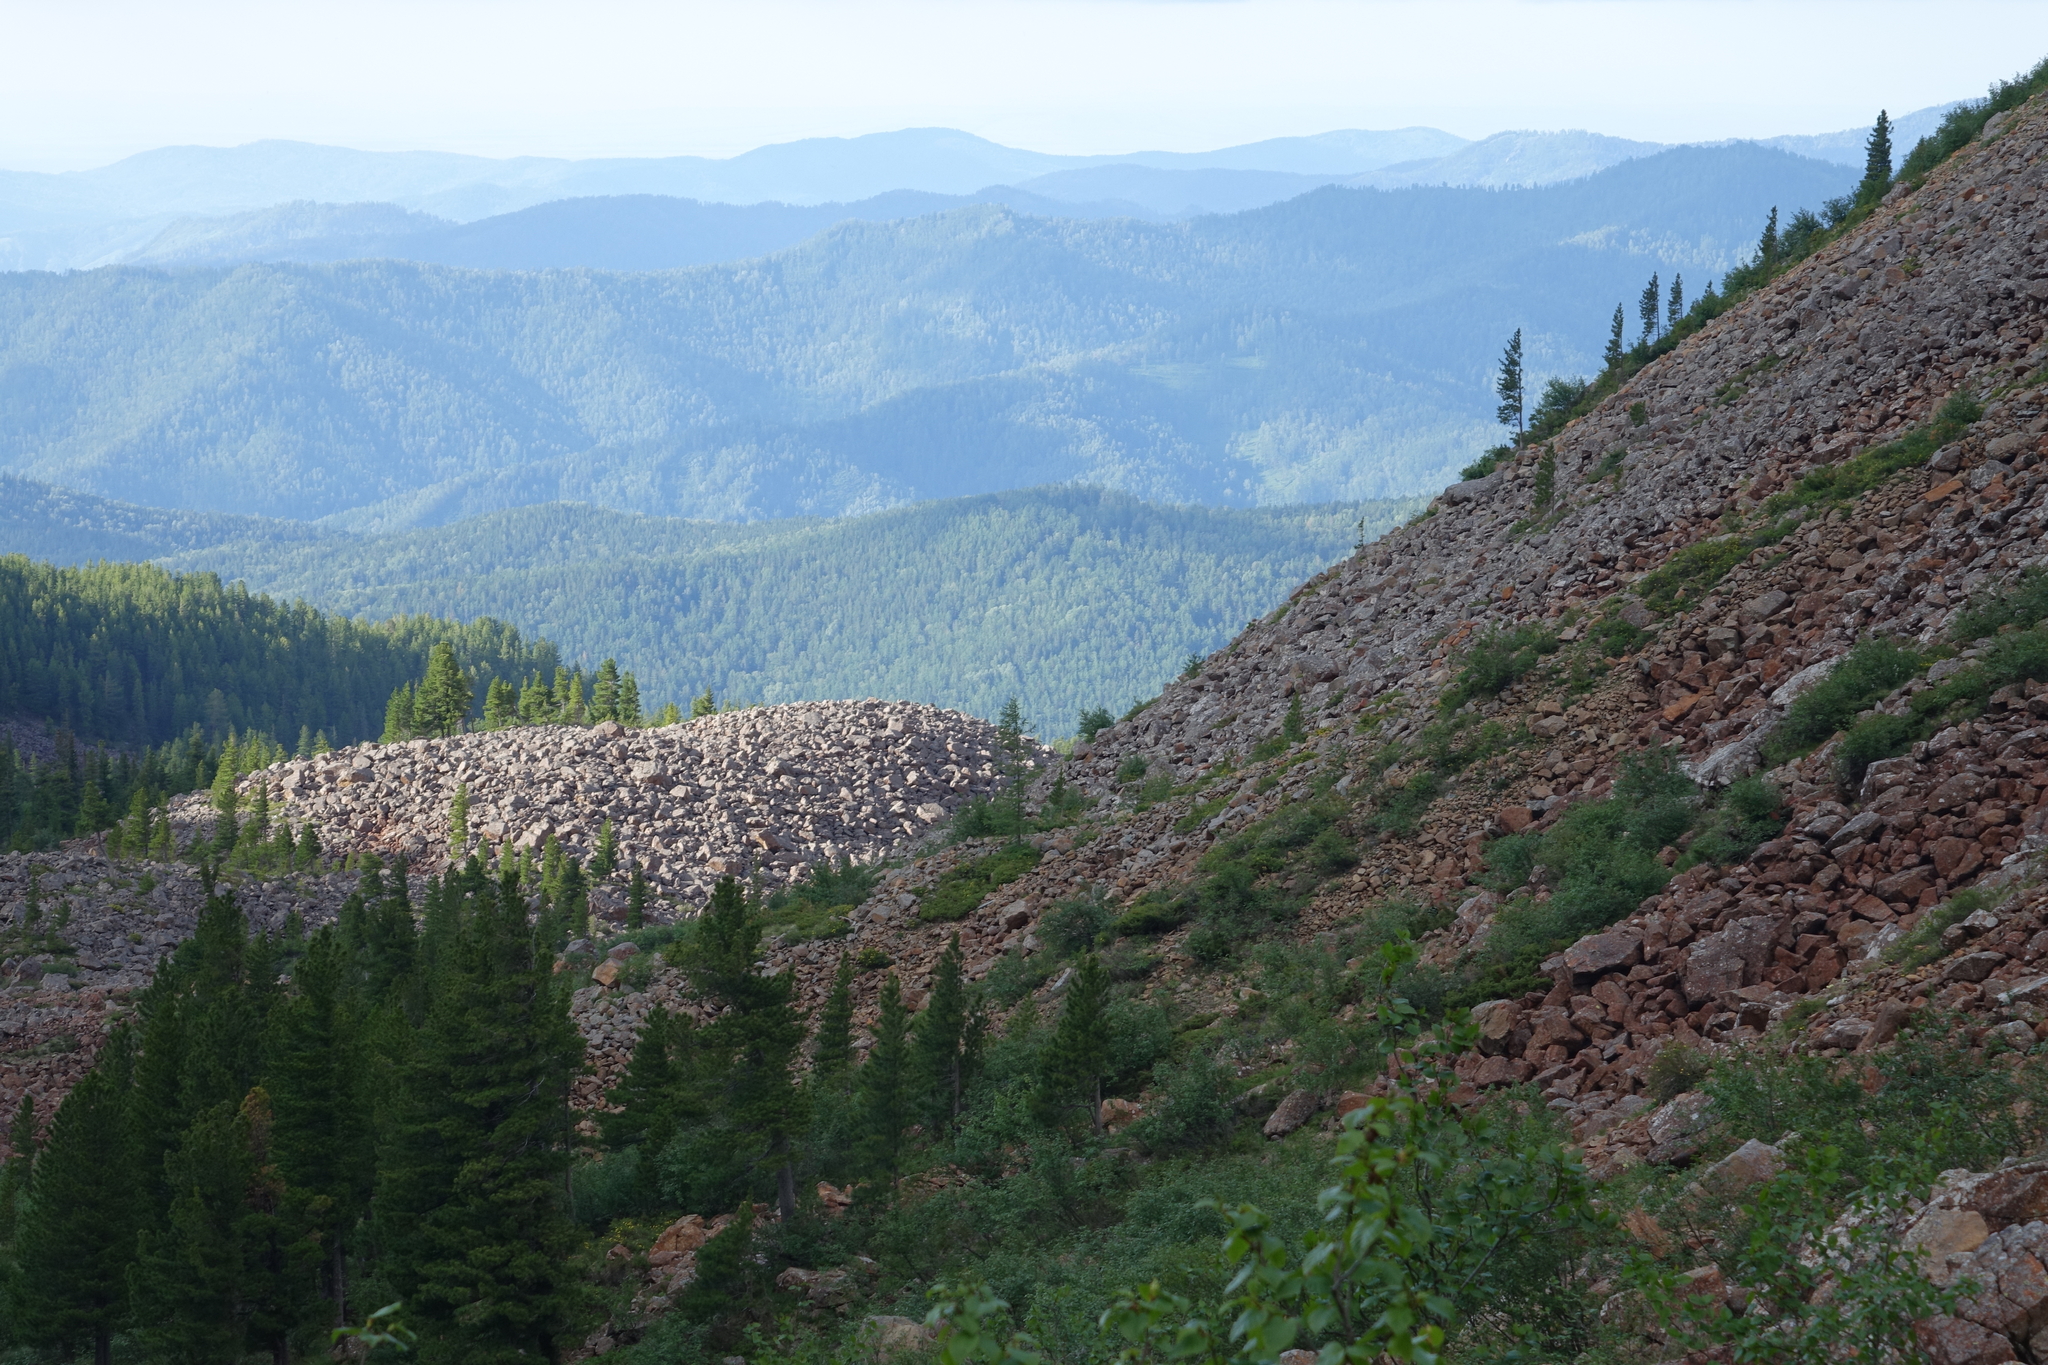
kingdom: Plantae
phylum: Tracheophyta
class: Pinopsida
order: Pinales
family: Pinaceae
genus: Pinus
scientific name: Pinus sibirica
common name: Siberian pine
